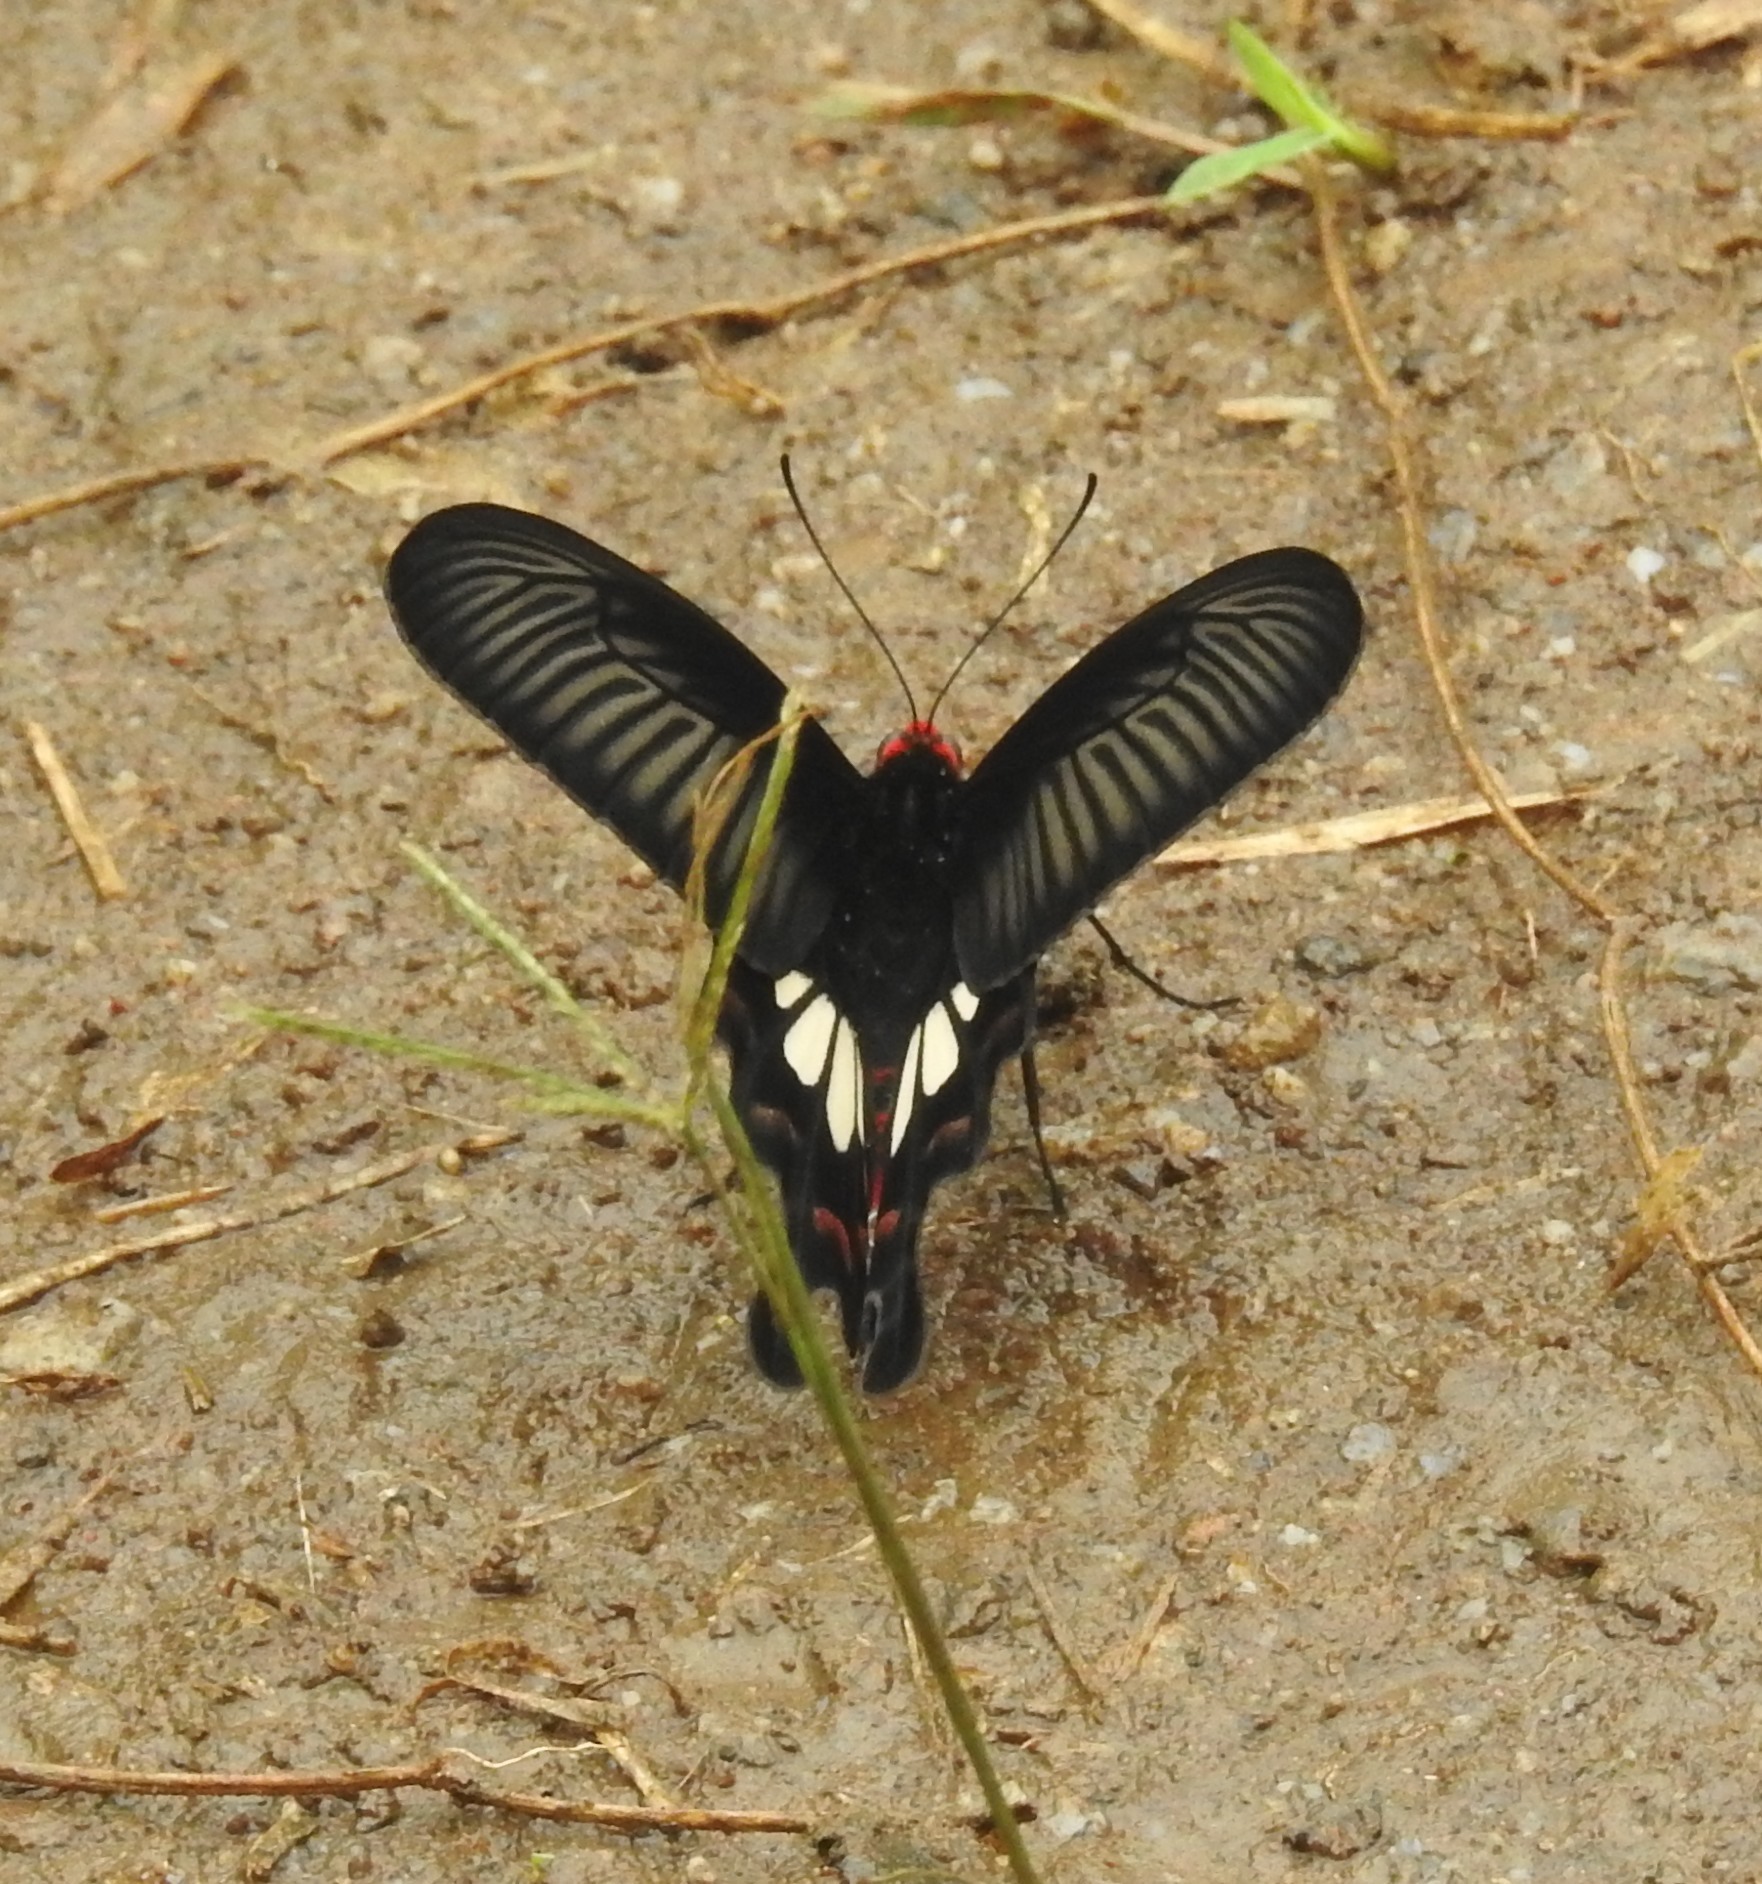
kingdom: Animalia
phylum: Arthropoda
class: Insecta
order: Lepidoptera
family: Papilionidae
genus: Pachliopta
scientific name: Pachliopta aristolochiae
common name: Common rose
